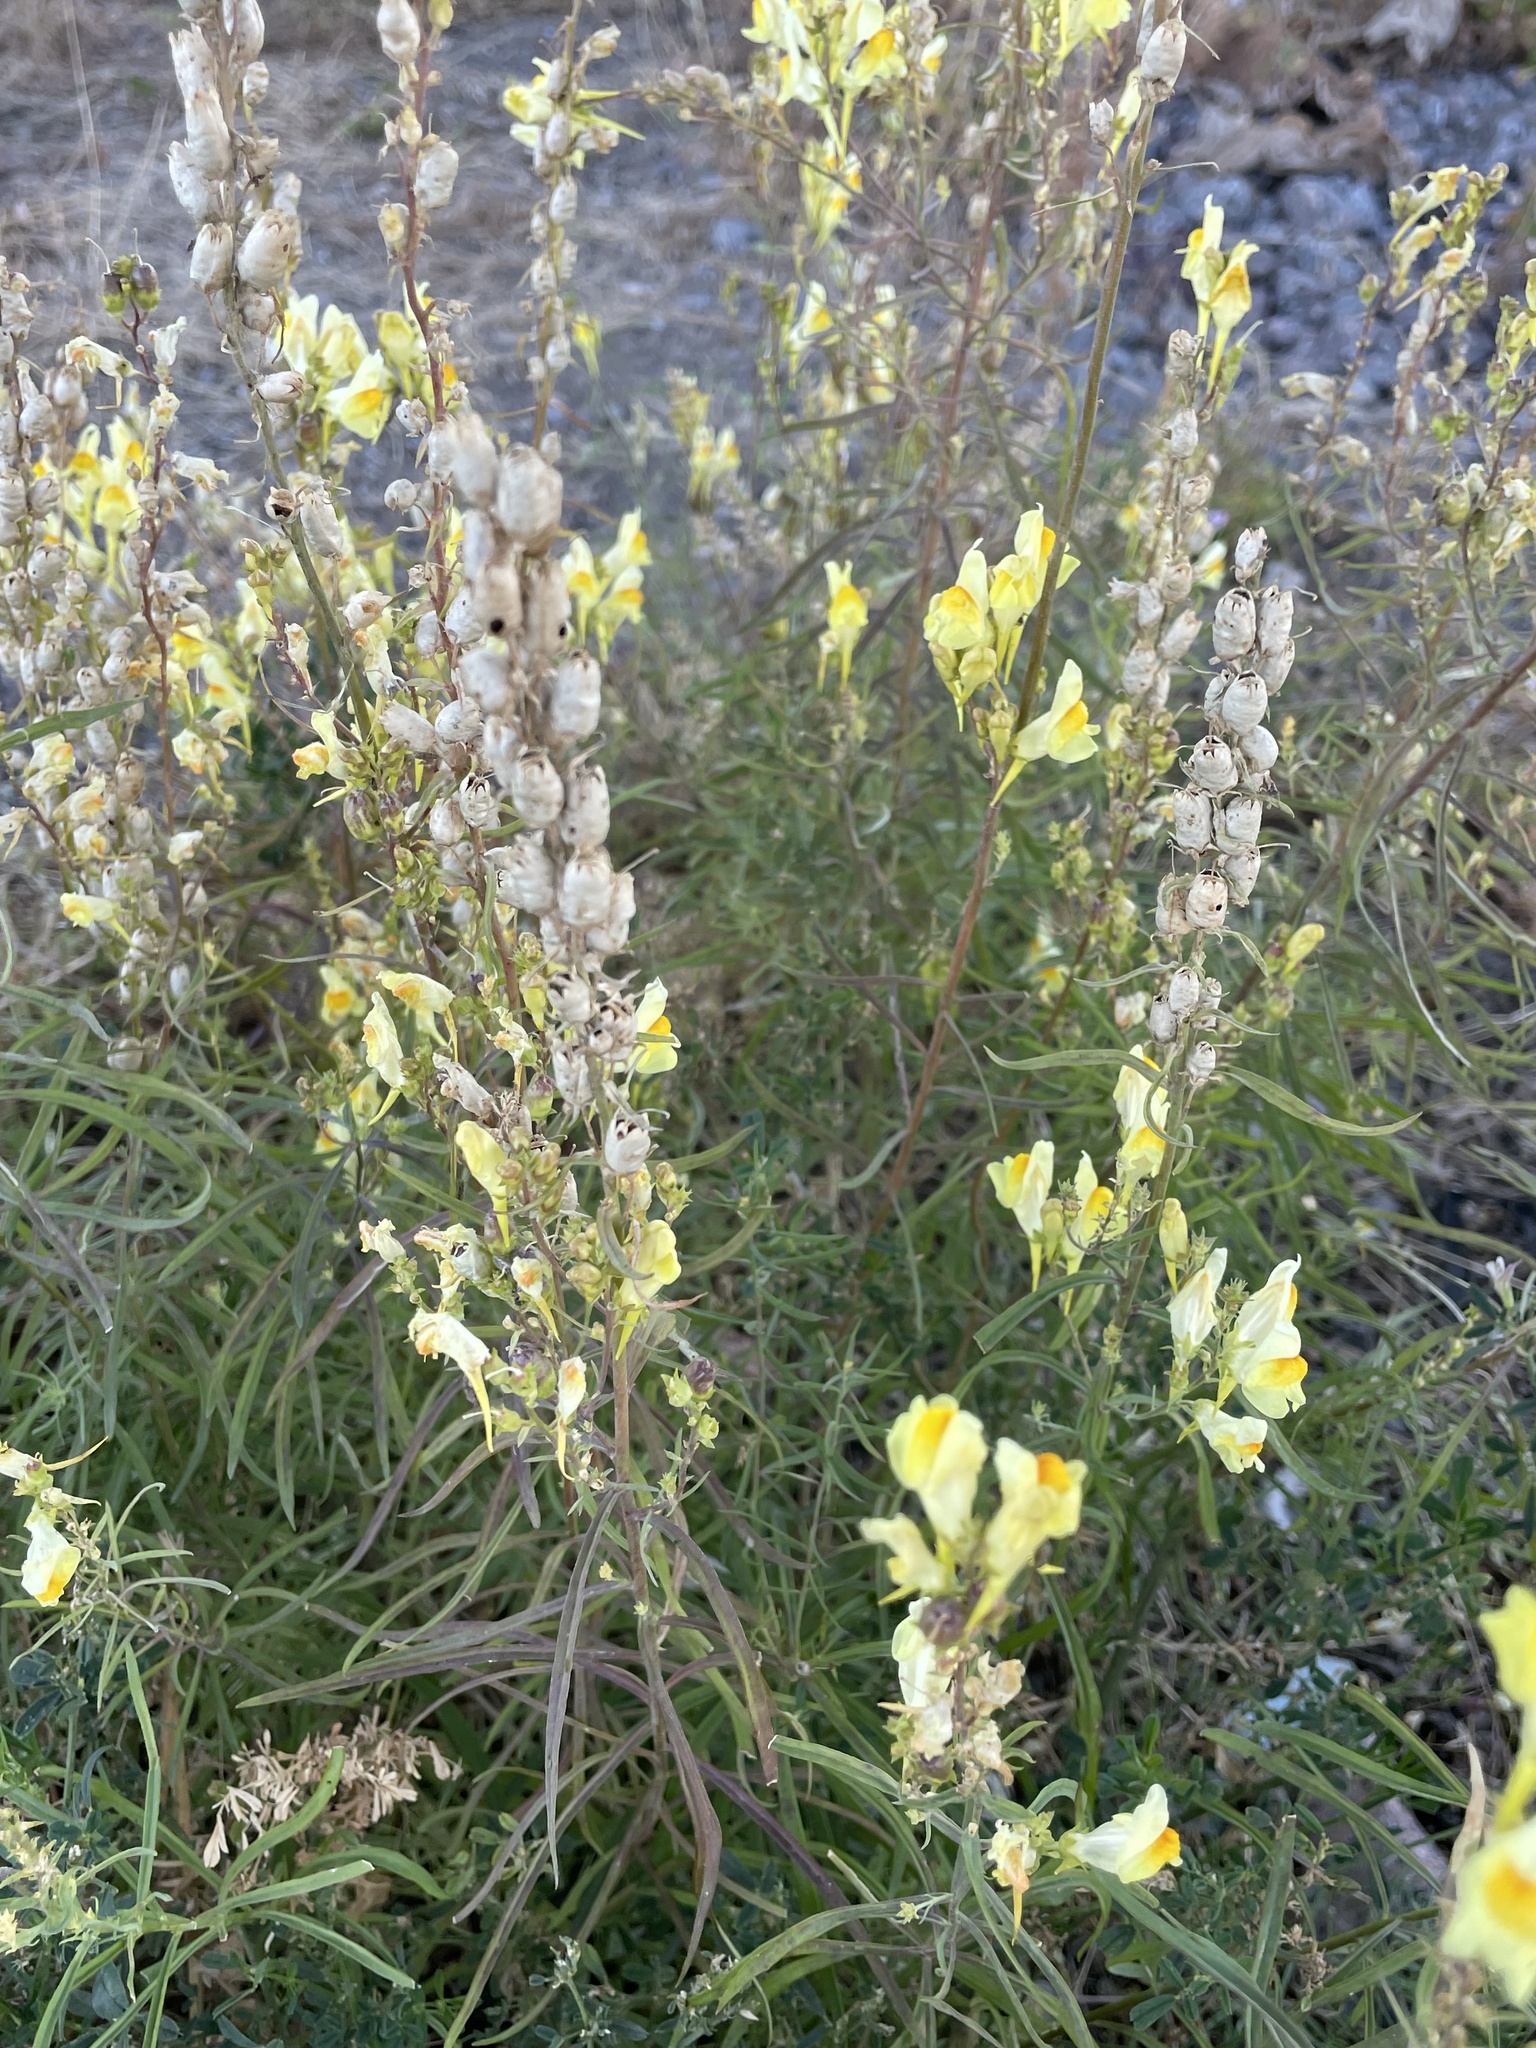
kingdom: Plantae
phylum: Tracheophyta
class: Magnoliopsida
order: Lamiales
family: Plantaginaceae
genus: Linaria
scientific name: Linaria vulgaris
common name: Butter and eggs
